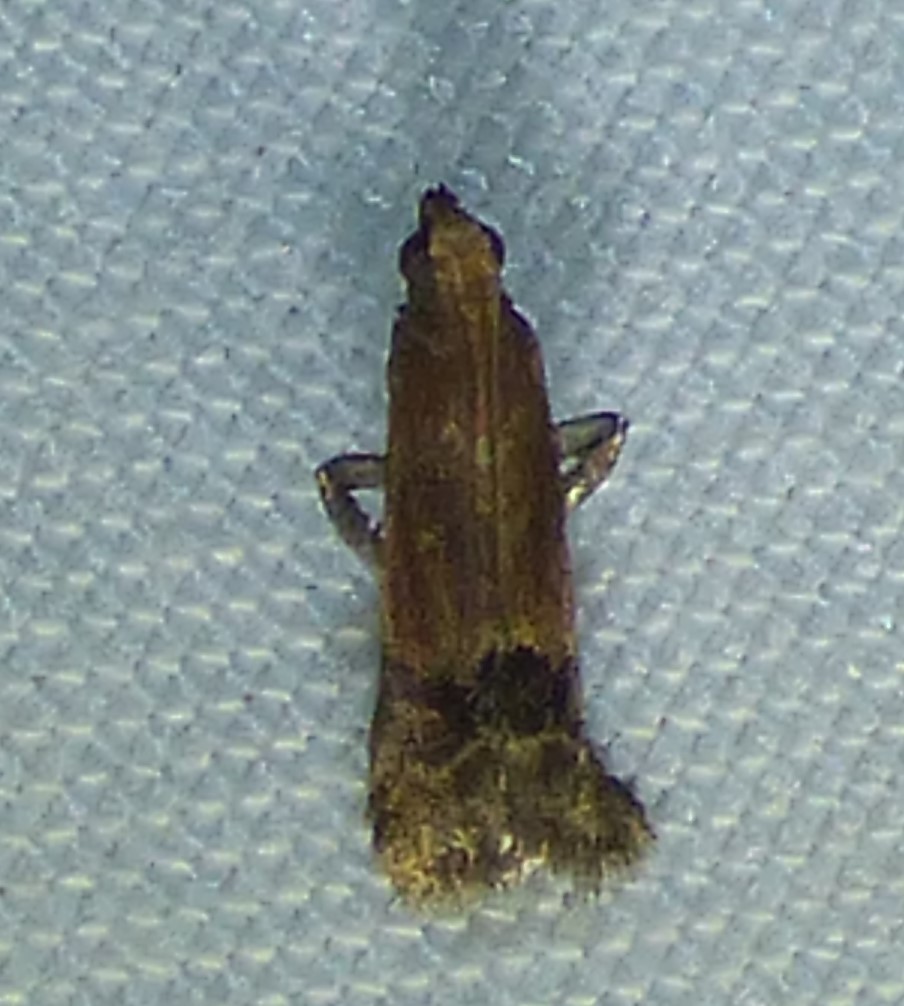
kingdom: Animalia
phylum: Arthropoda
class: Insecta
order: Lepidoptera
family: Pyralidae
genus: Eulogia
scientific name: Eulogia ochrifrontella
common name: Broad-banded eulogia moth
